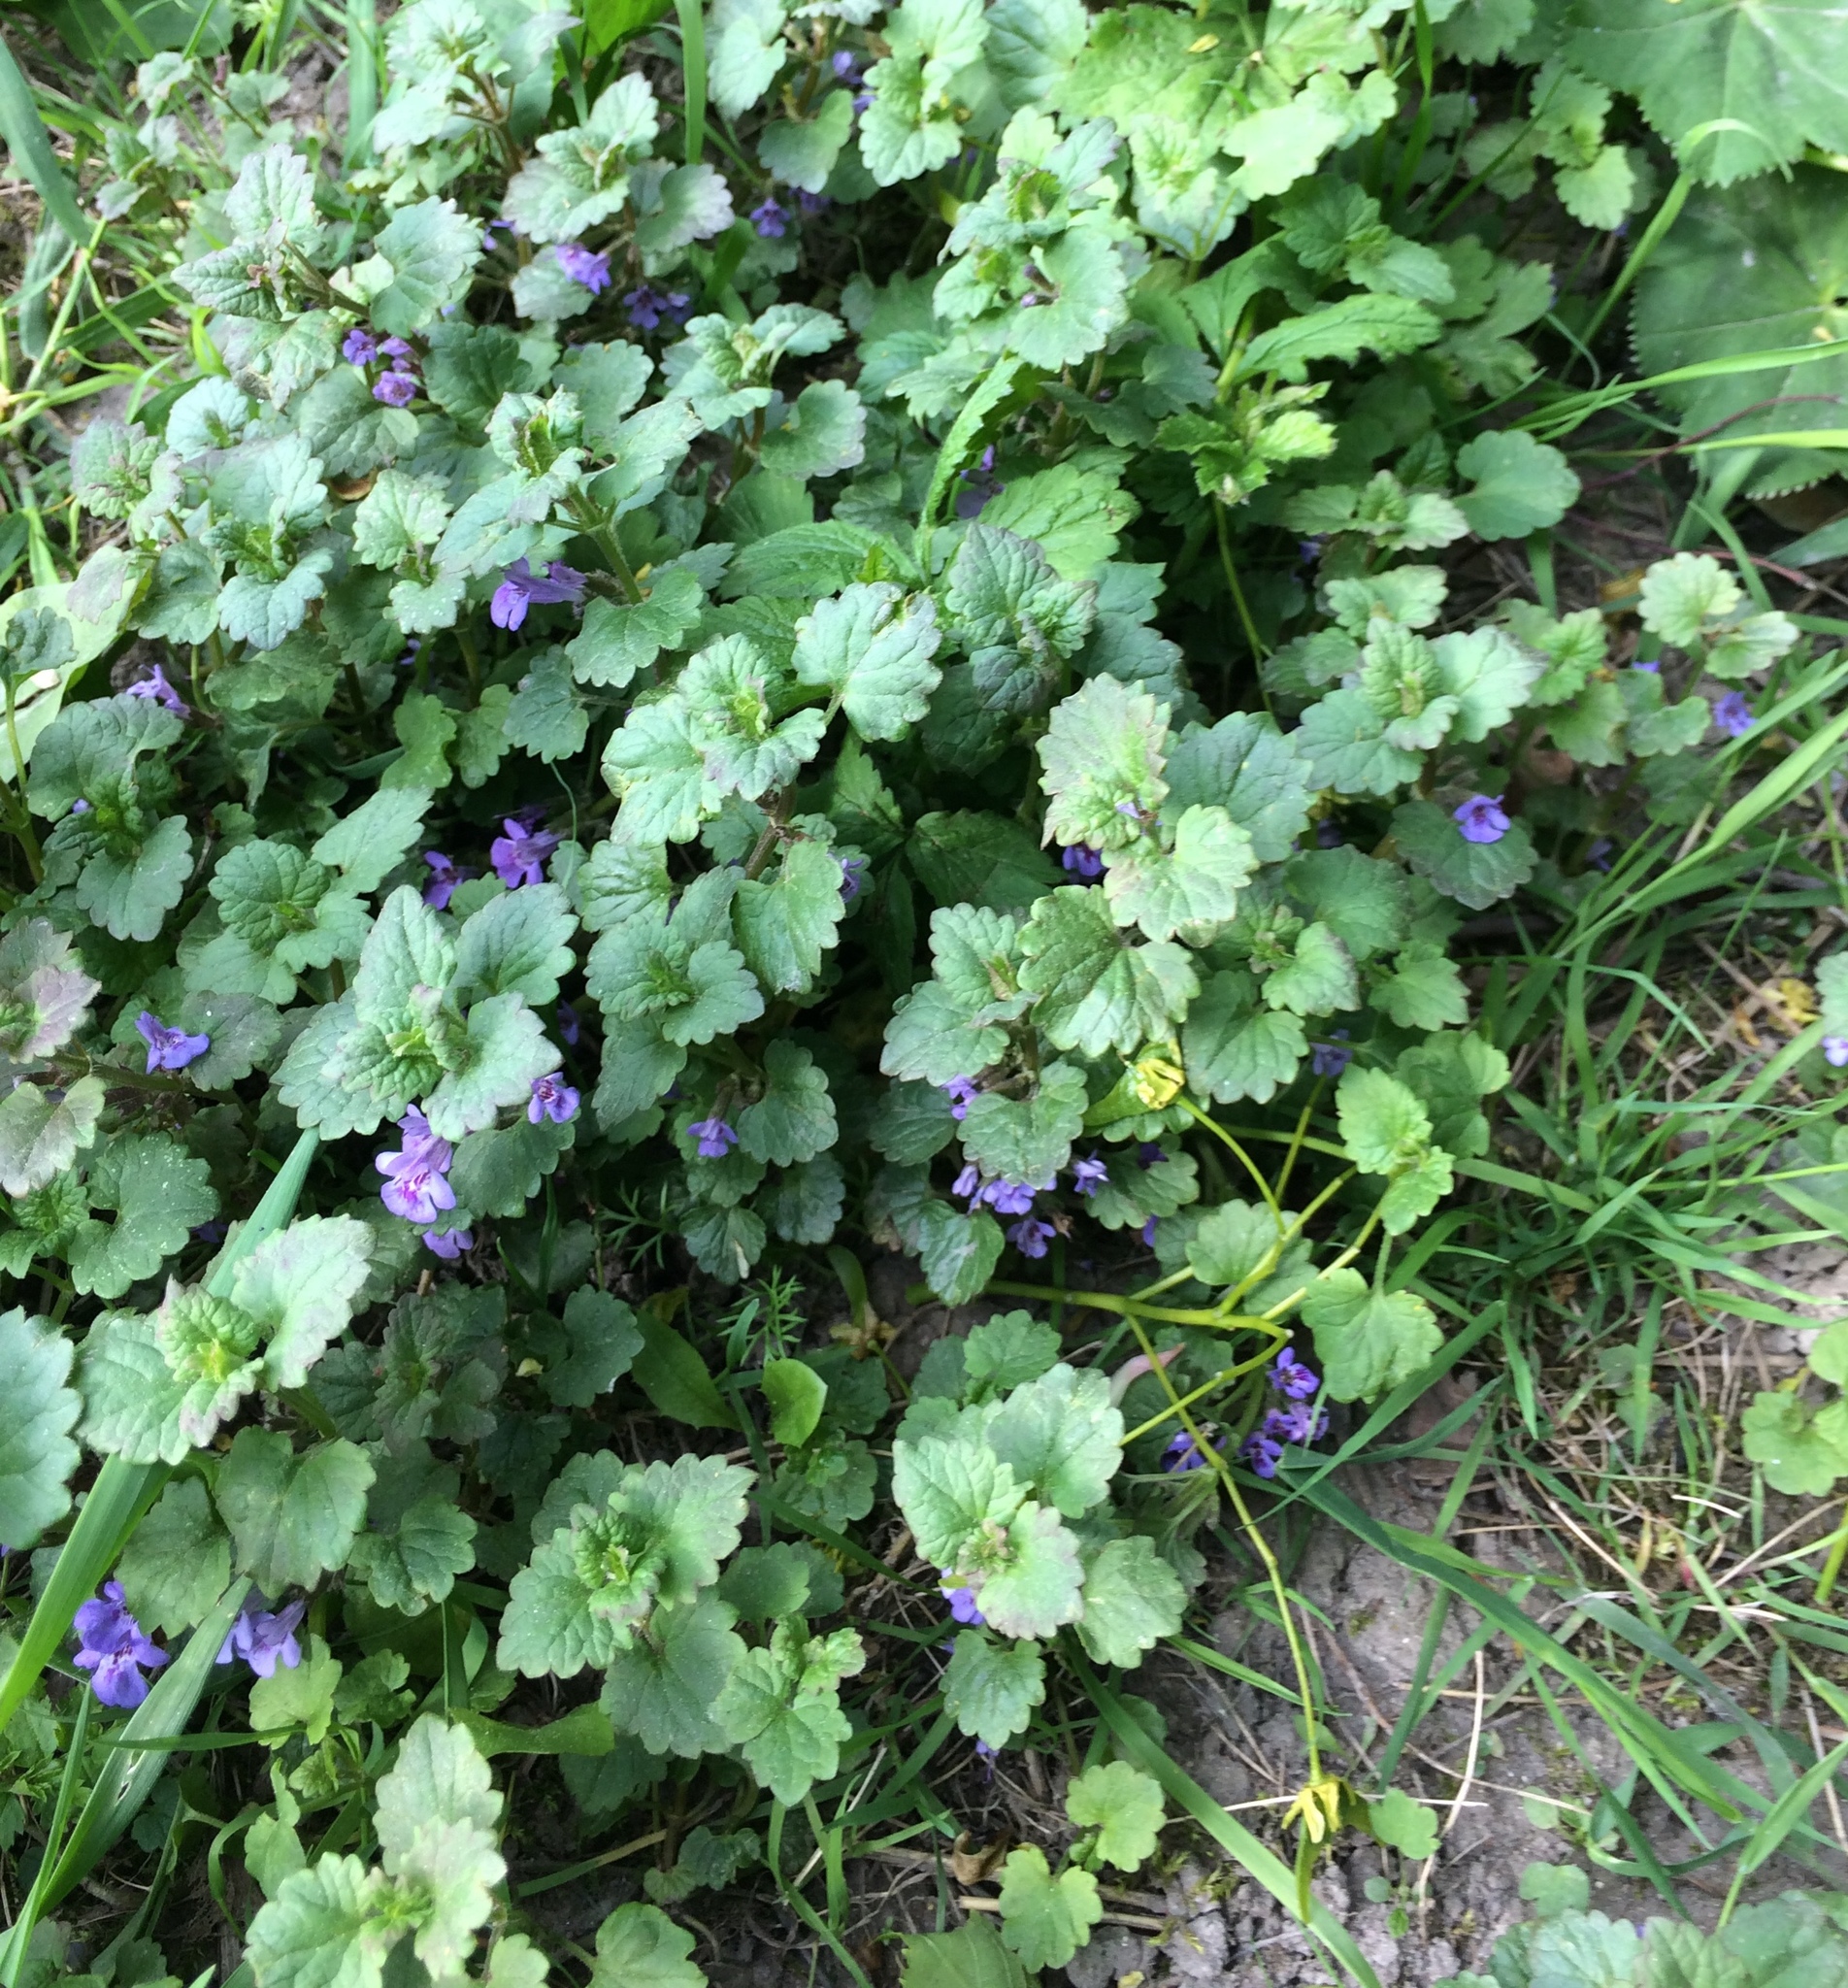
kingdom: Plantae
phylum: Tracheophyta
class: Magnoliopsida
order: Lamiales
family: Lamiaceae
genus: Glechoma
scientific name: Glechoma hederacea
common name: Ground ivy
